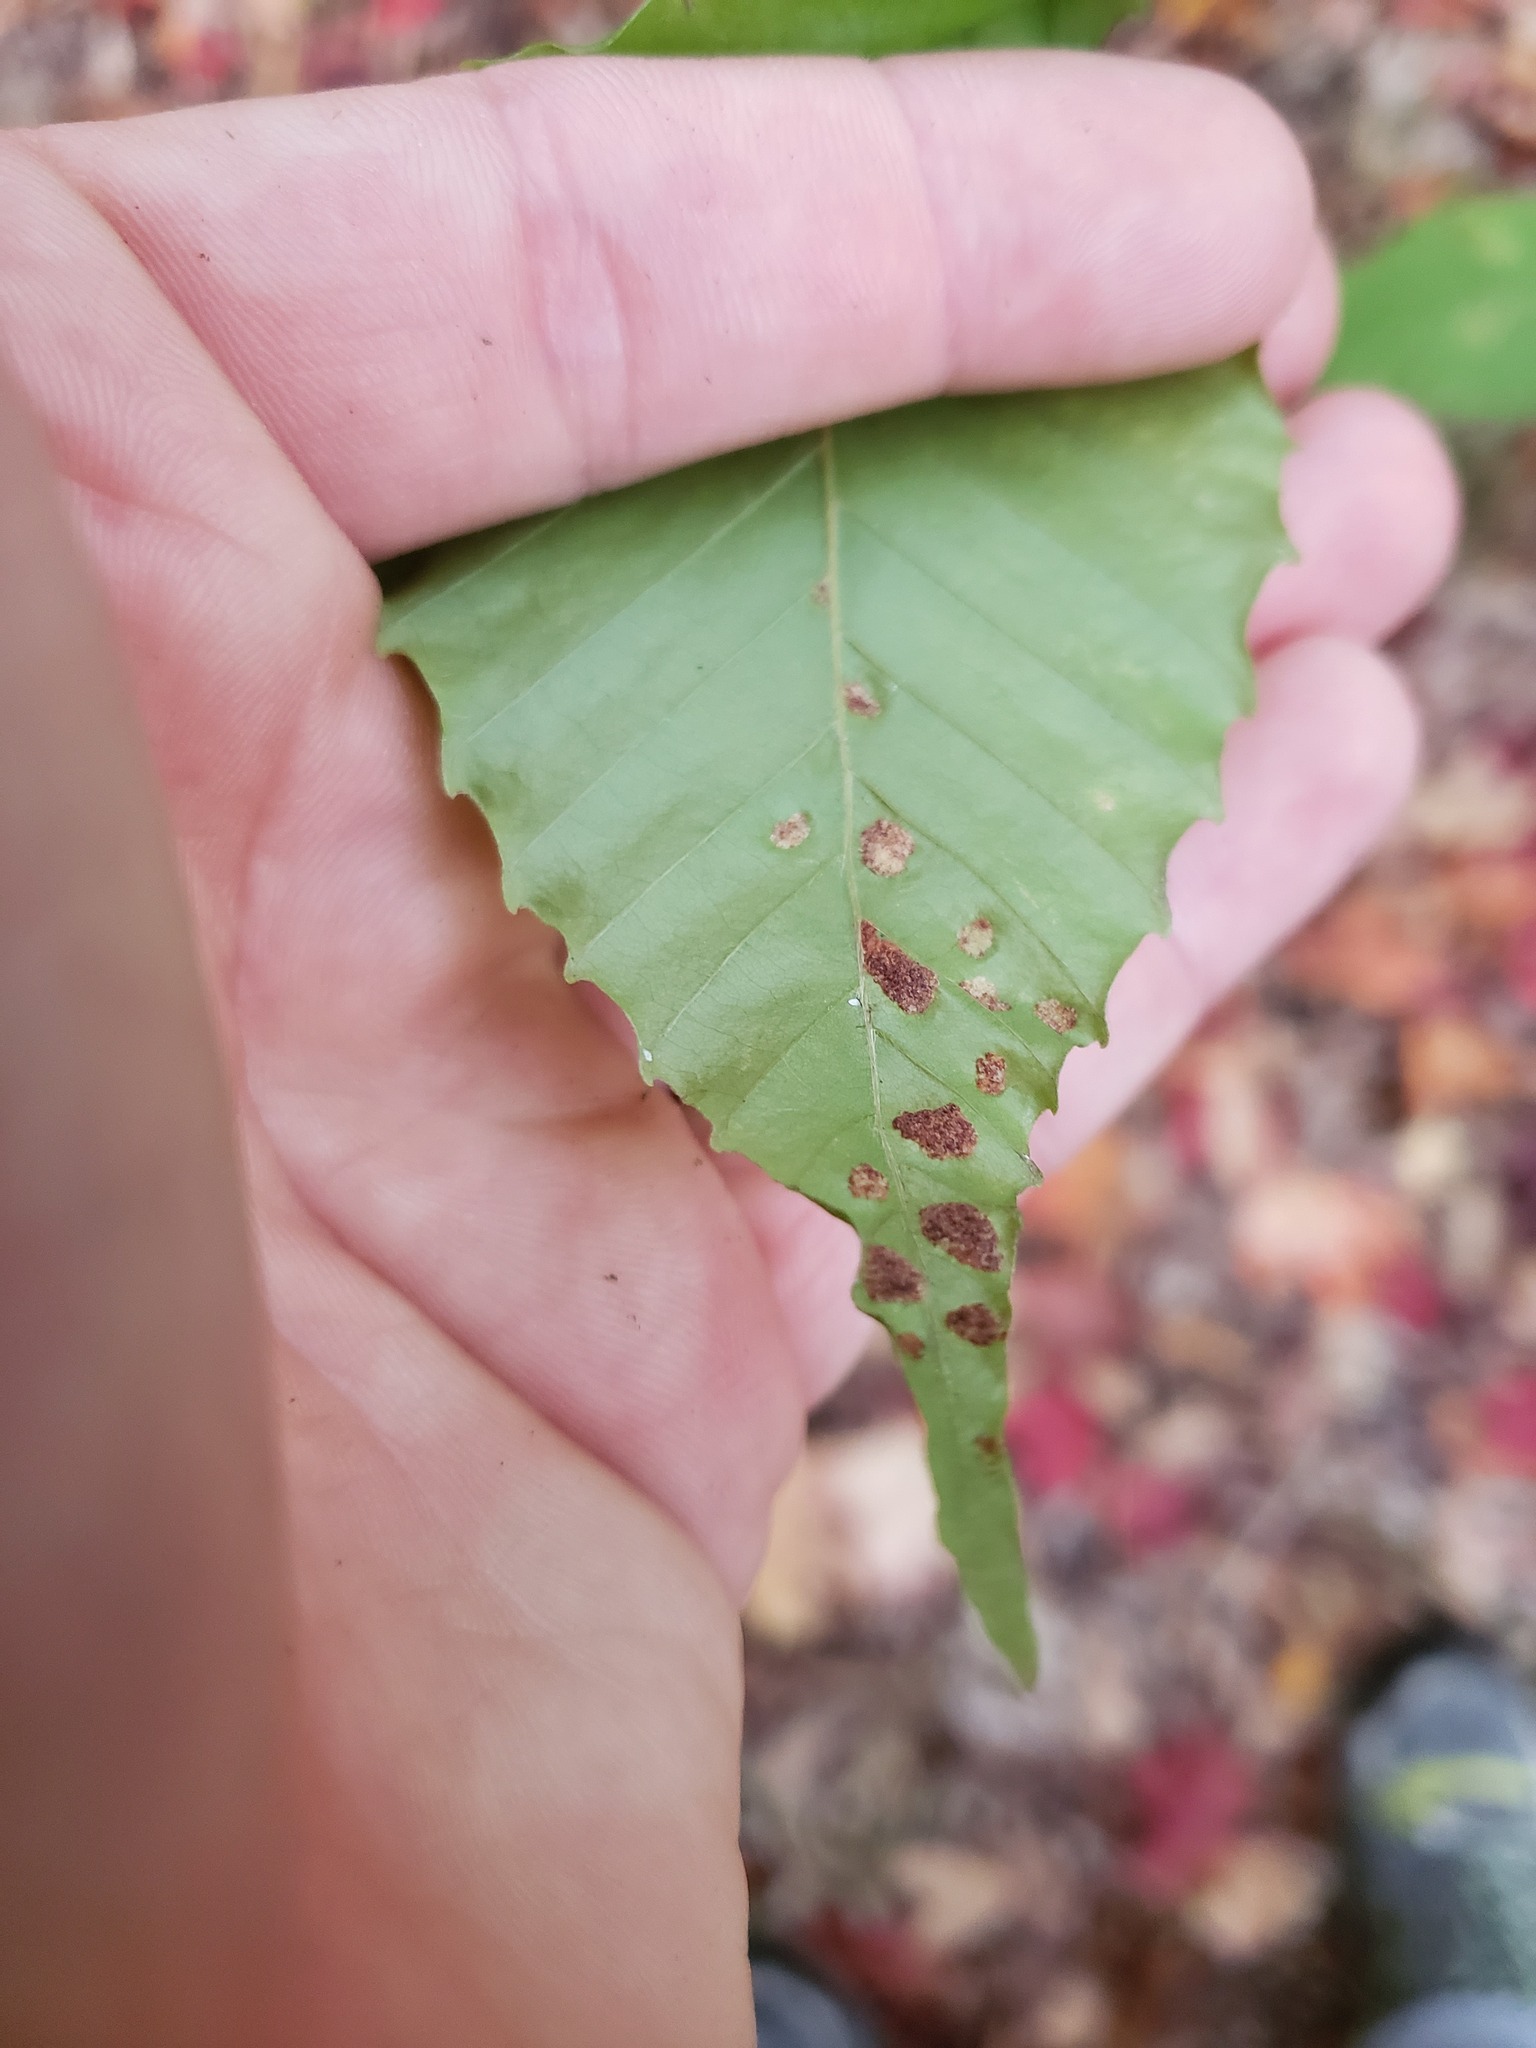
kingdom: Animalia
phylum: Arthropoda
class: Arachnida
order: Trombidiformes
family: Eriophyidae
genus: Acalitus
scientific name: Acalitus
